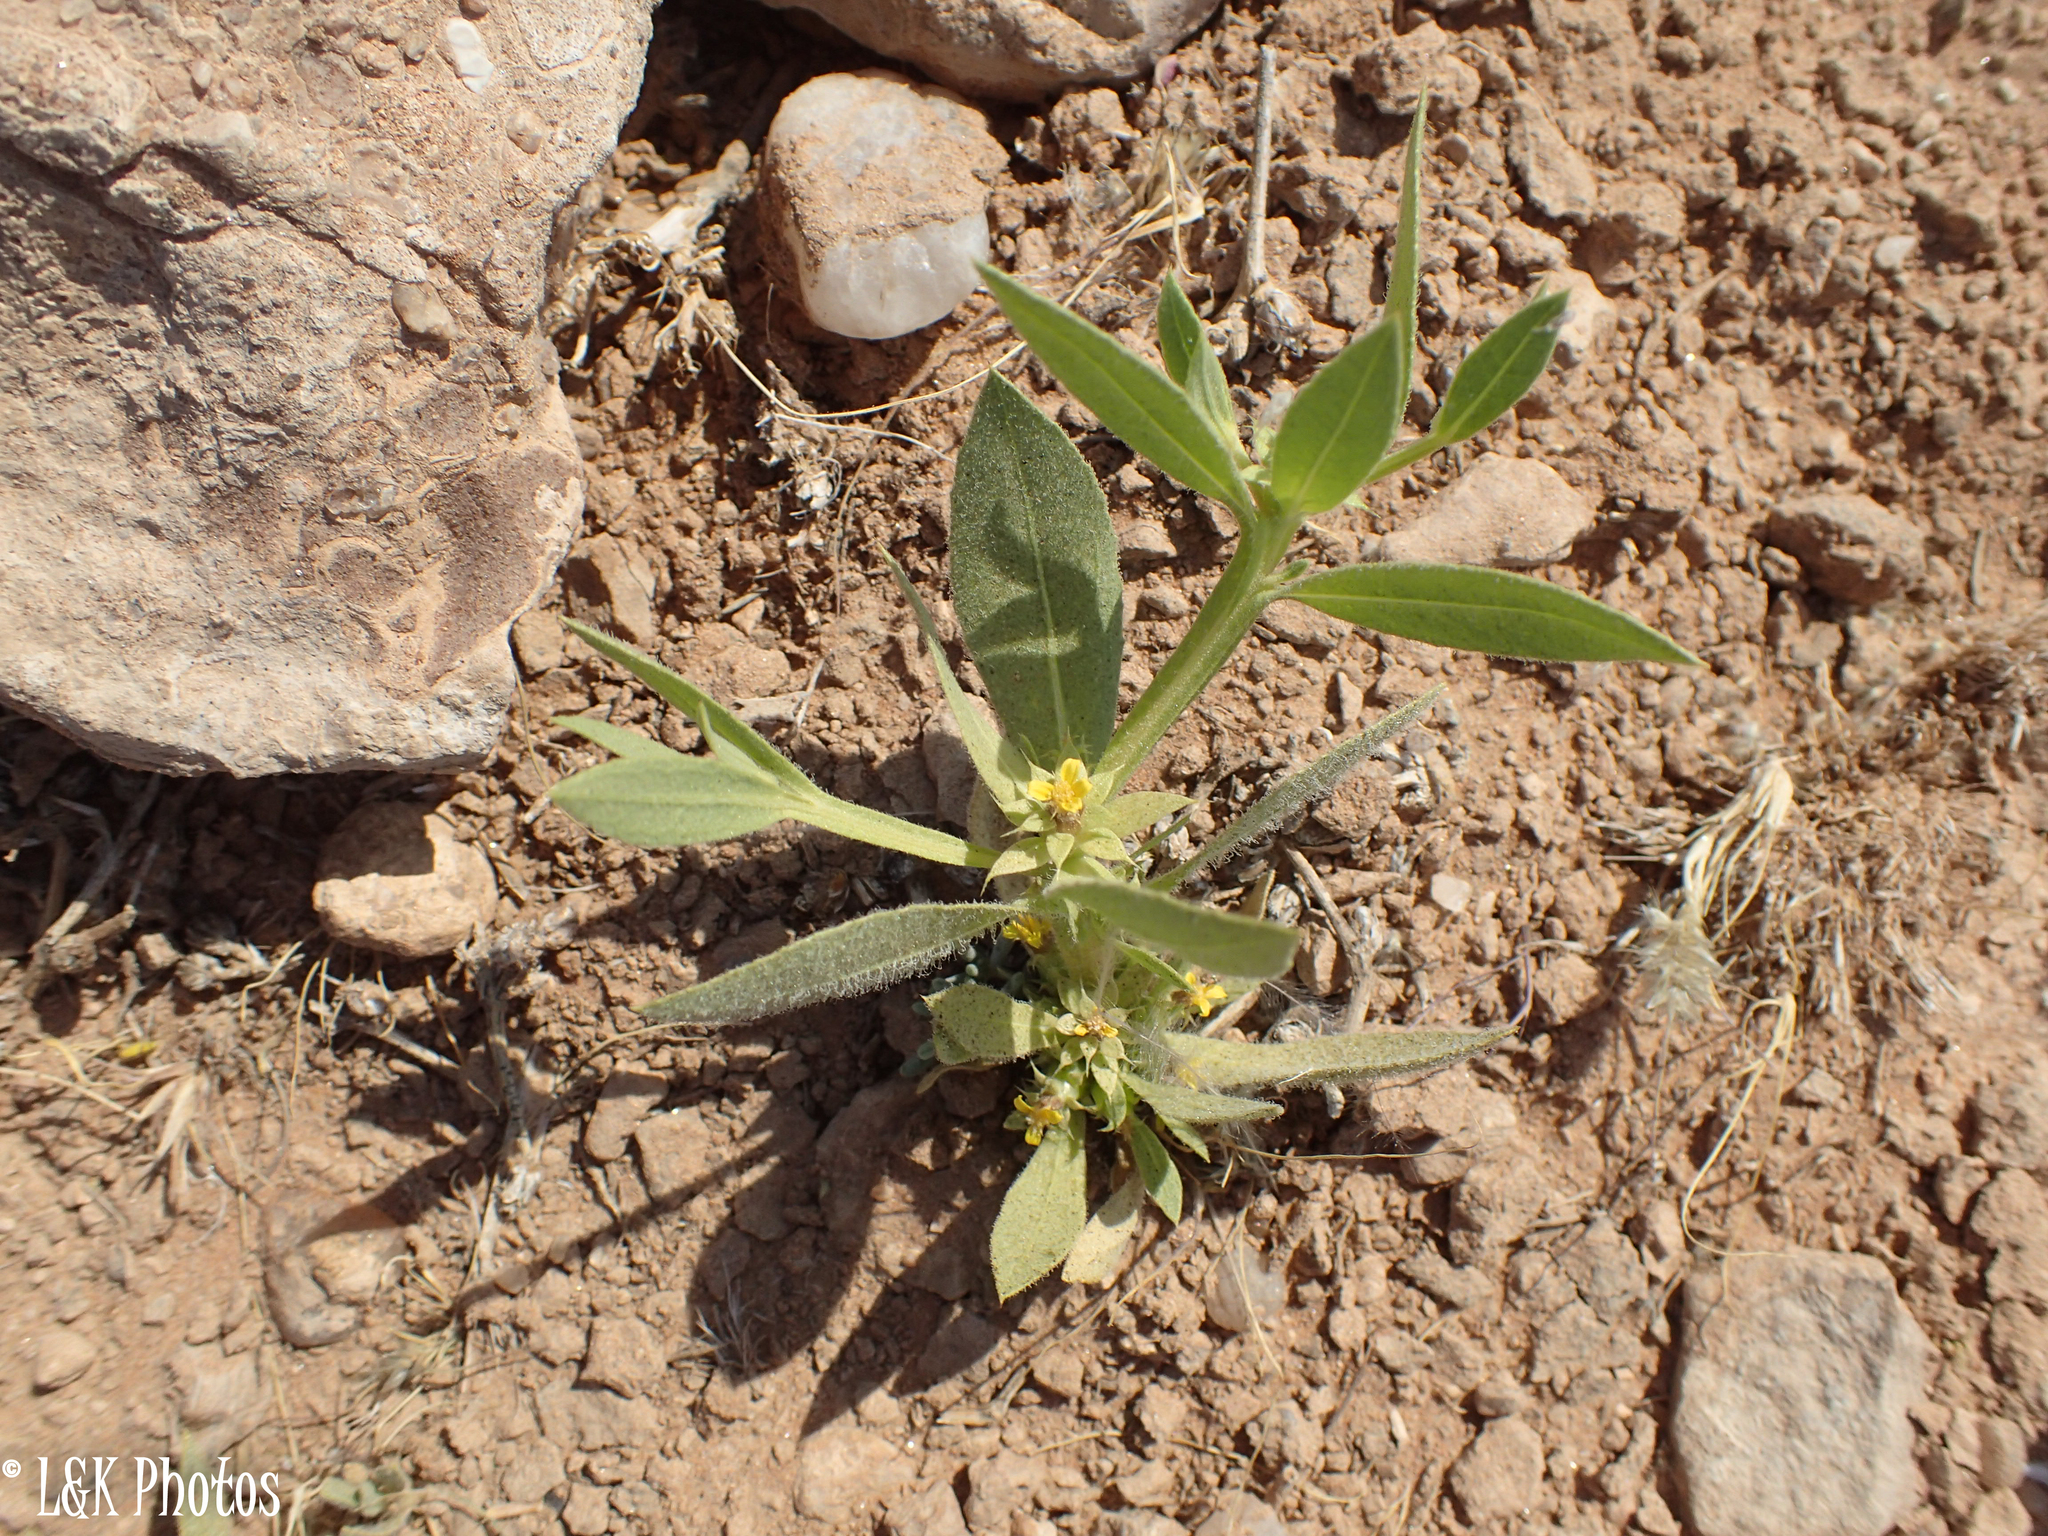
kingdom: Plantae
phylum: Tracheophyta
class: Magnoliopsida
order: Asterales
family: Asteraceae
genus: Geigeria
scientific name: Geigeria alata
